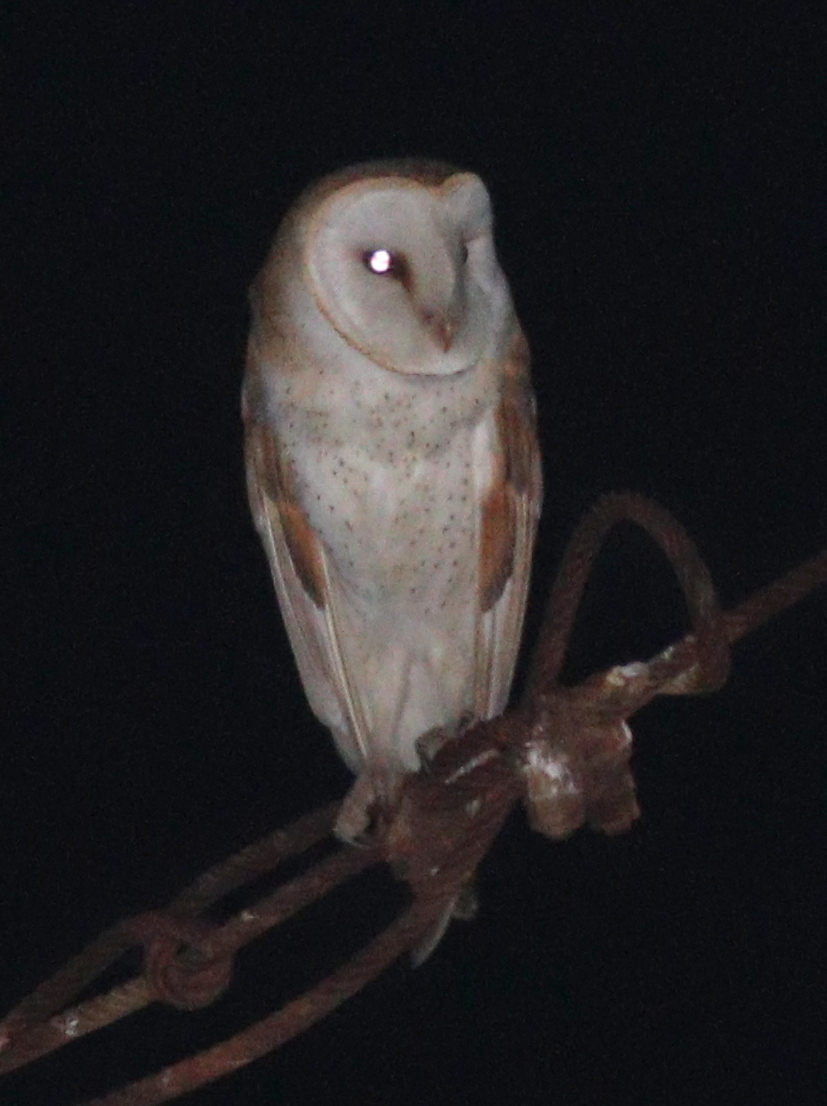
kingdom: Animalia
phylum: Chordata
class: Aves
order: Strigiformes
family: Tytonidae
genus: Tyto
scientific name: Tyto furcata
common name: American barn owl
